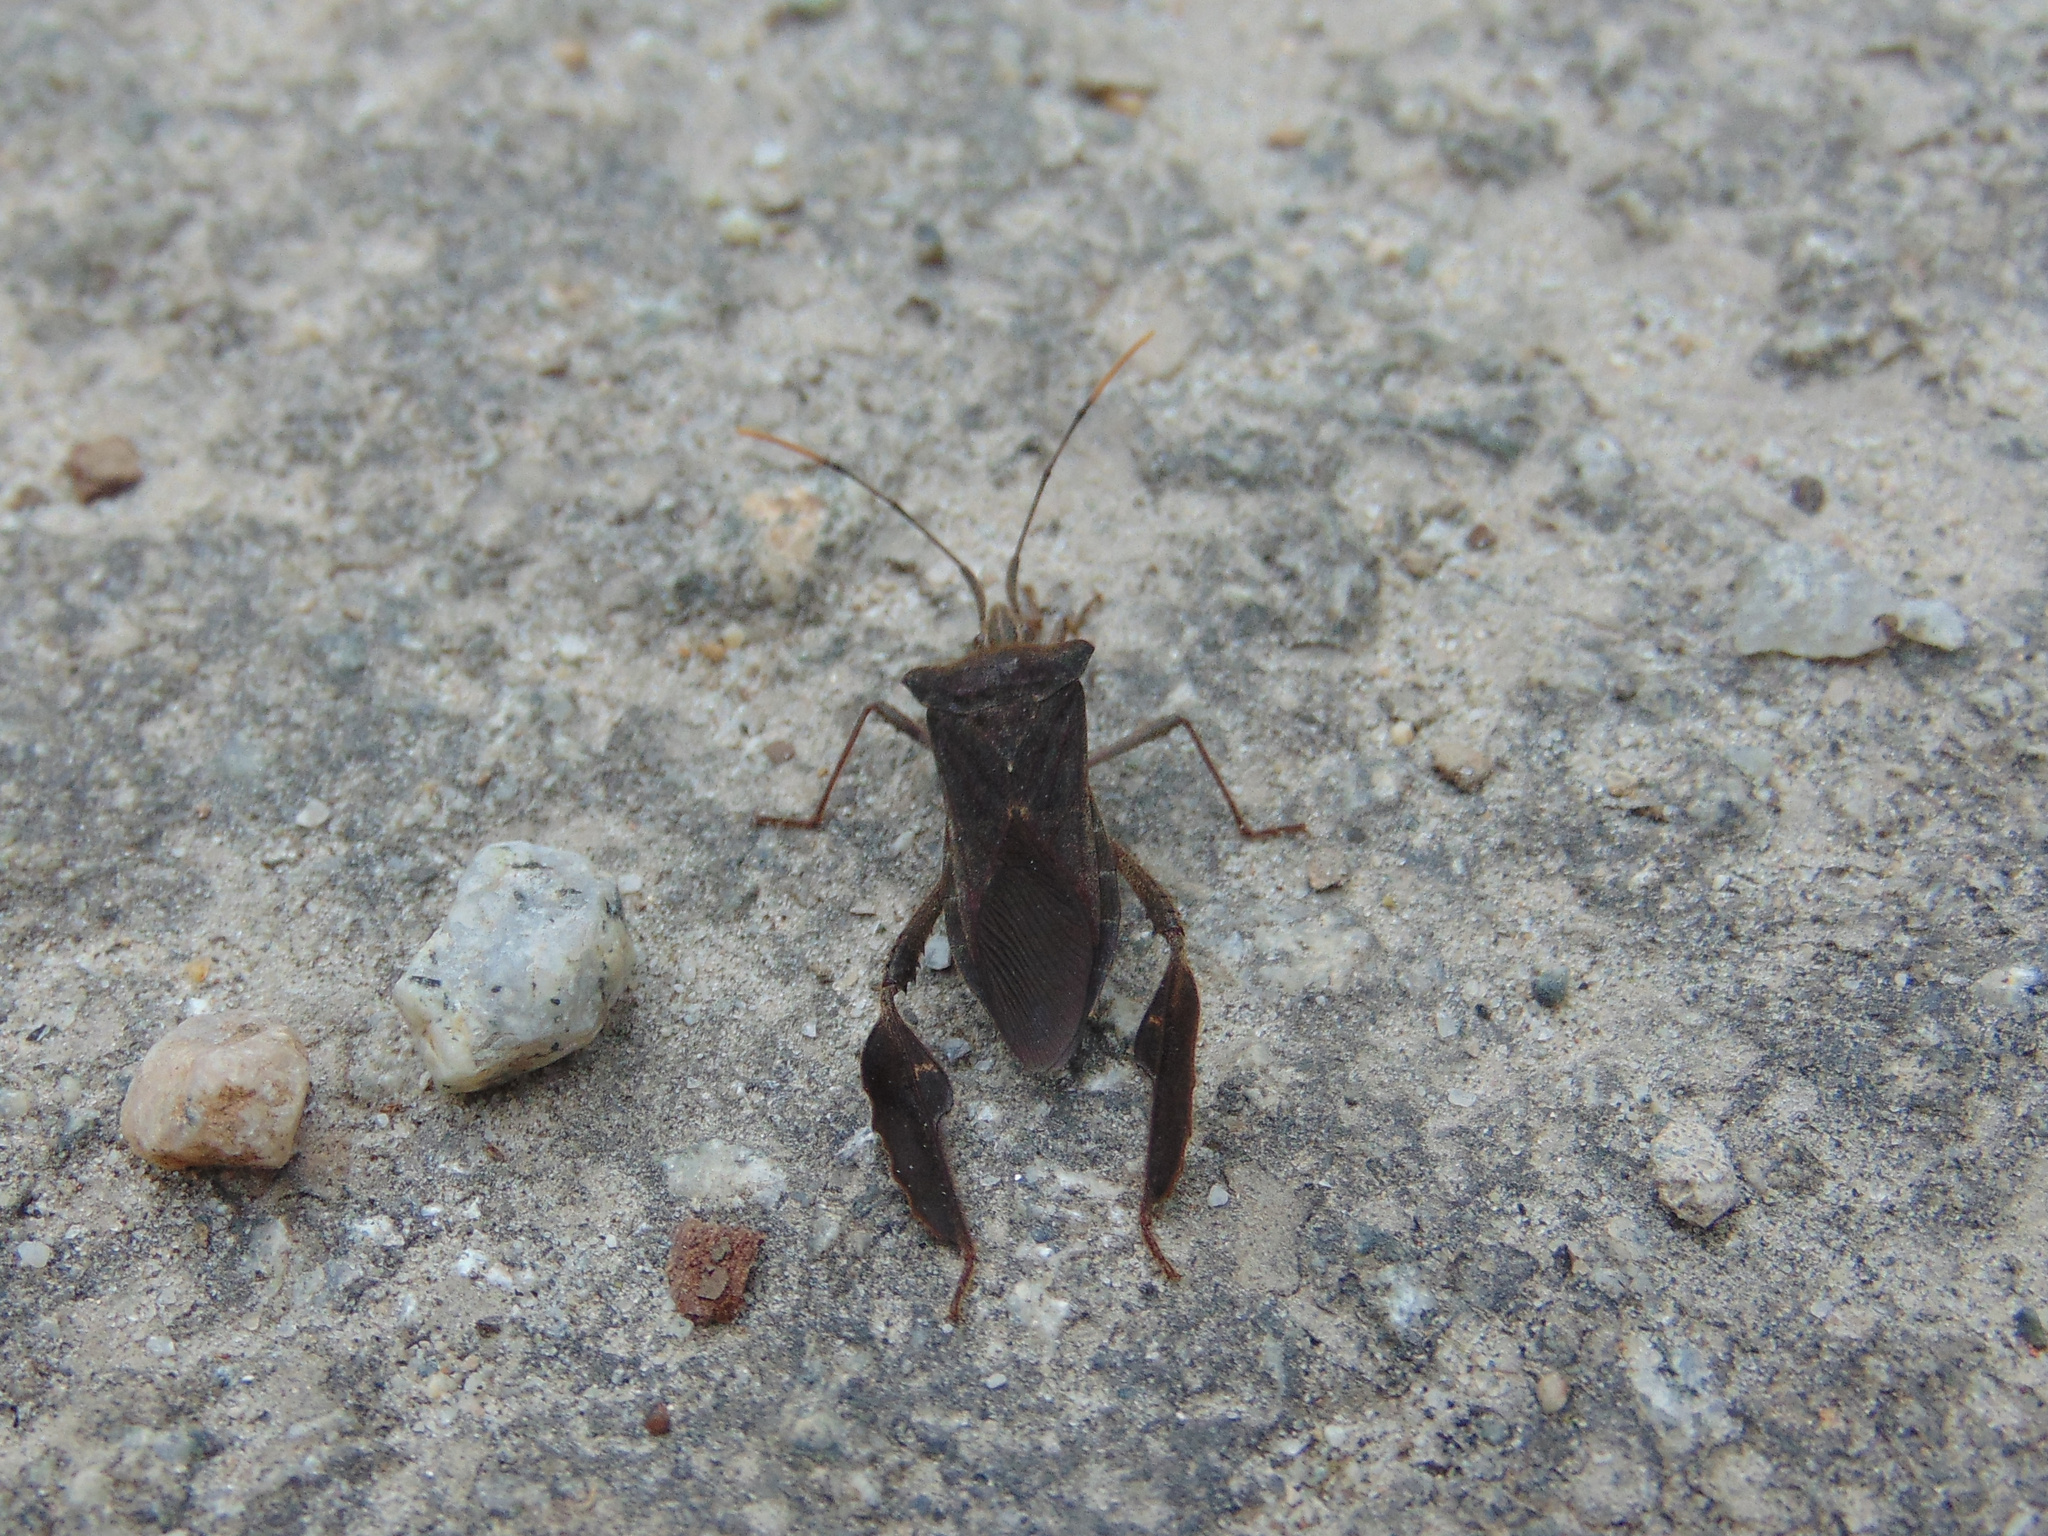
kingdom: Animalia
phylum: Arthropoda
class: Insecta
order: Hemiptera
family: Coreidae
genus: Leptoglossus
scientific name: Leptoglossus ingens
